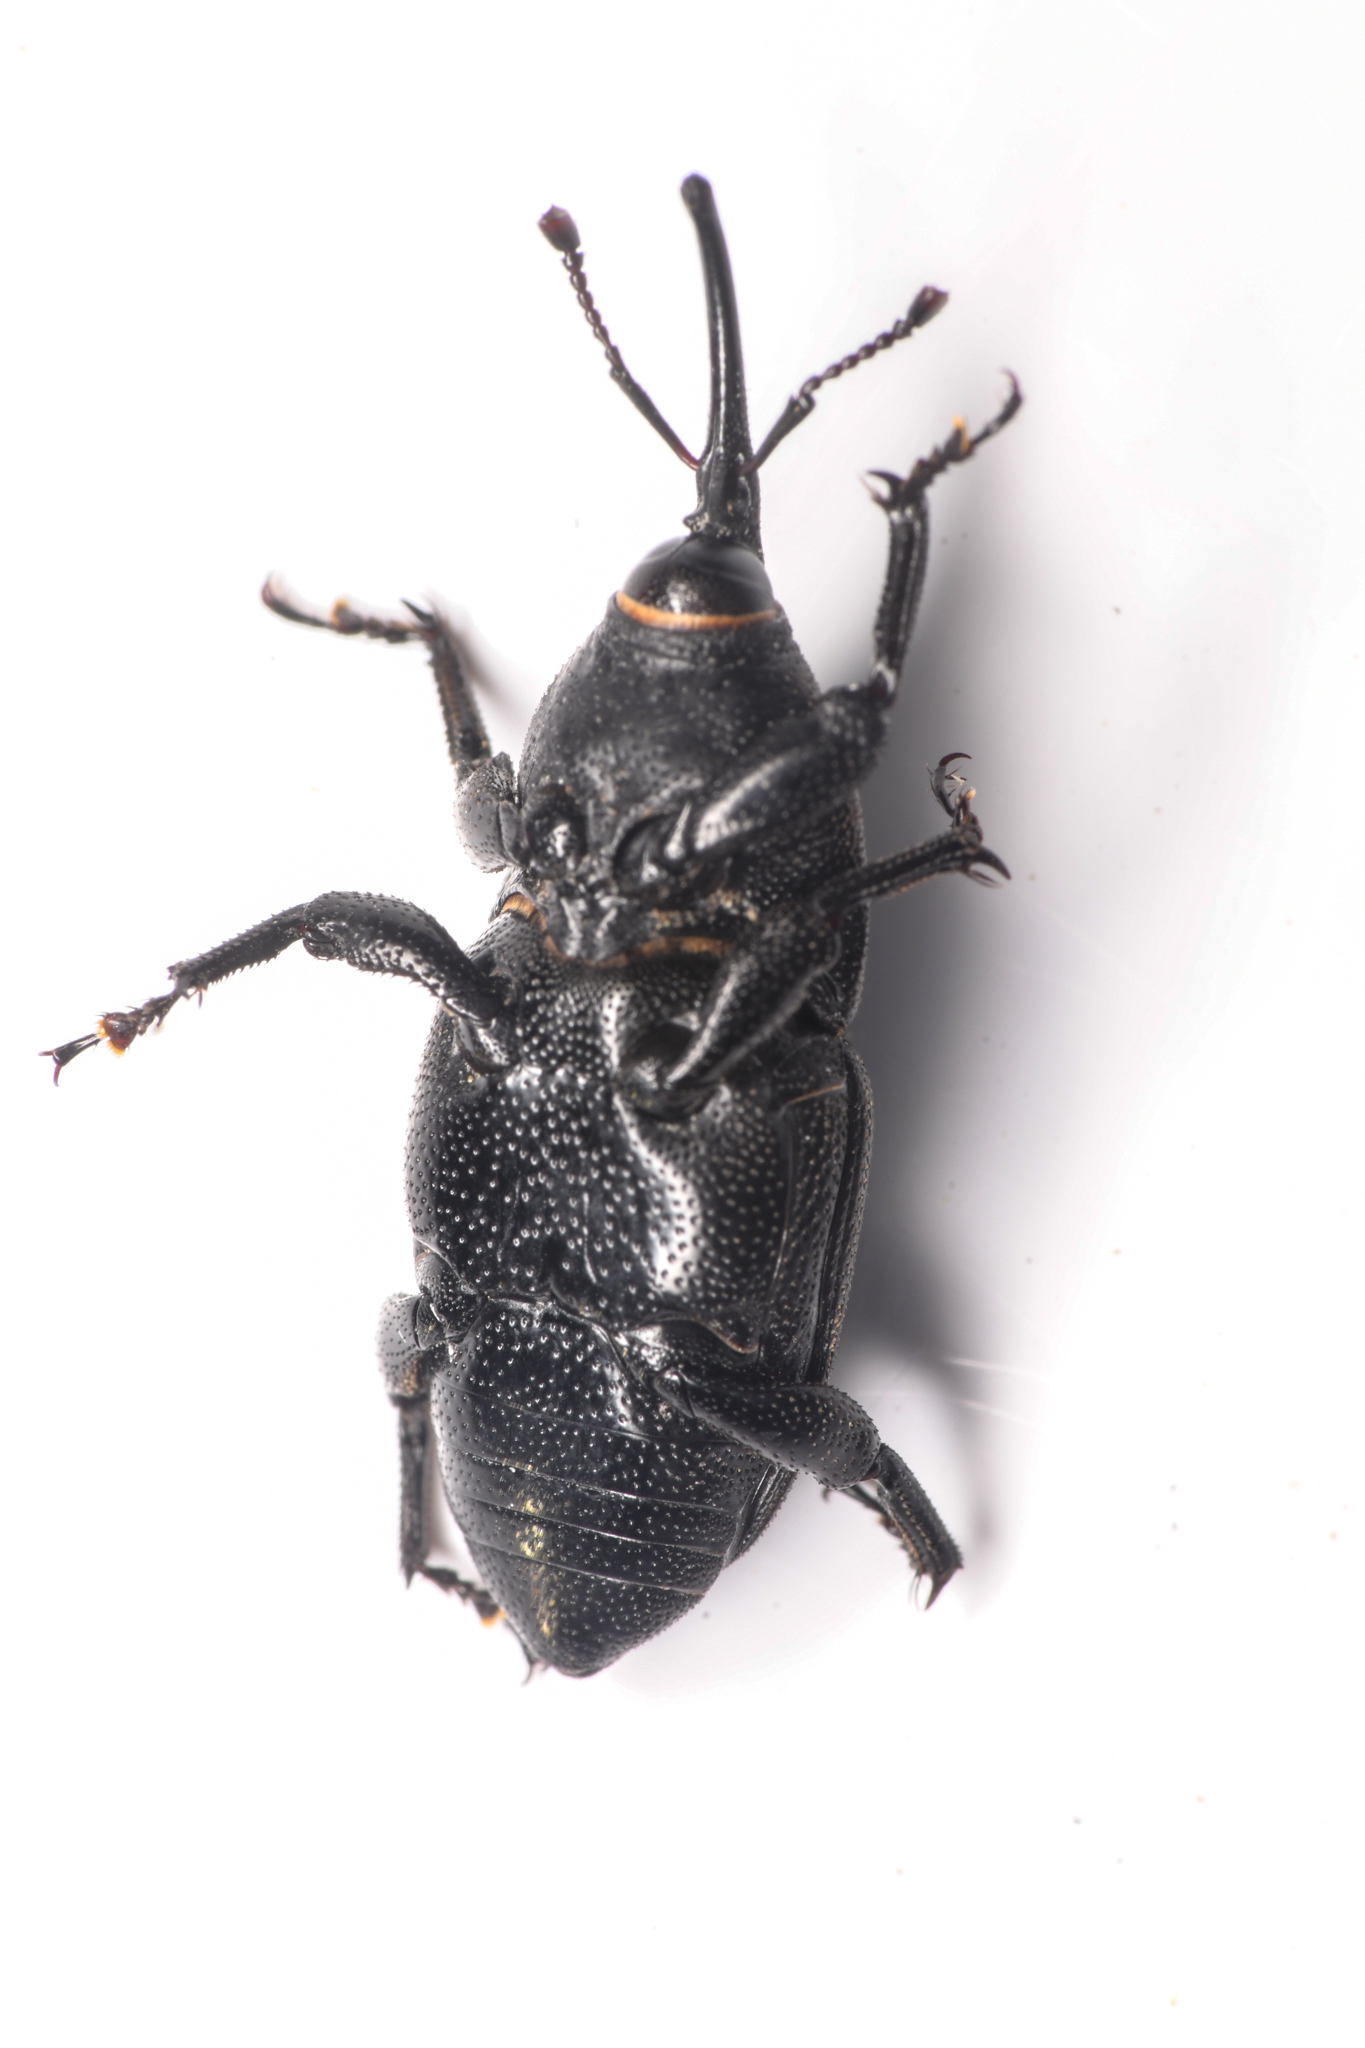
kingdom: Animalia
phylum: Arthropoda
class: Insecta
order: Coleoptera
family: Dryophthoridae
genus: Scyphophorus
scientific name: Scyphophorus yuccae
